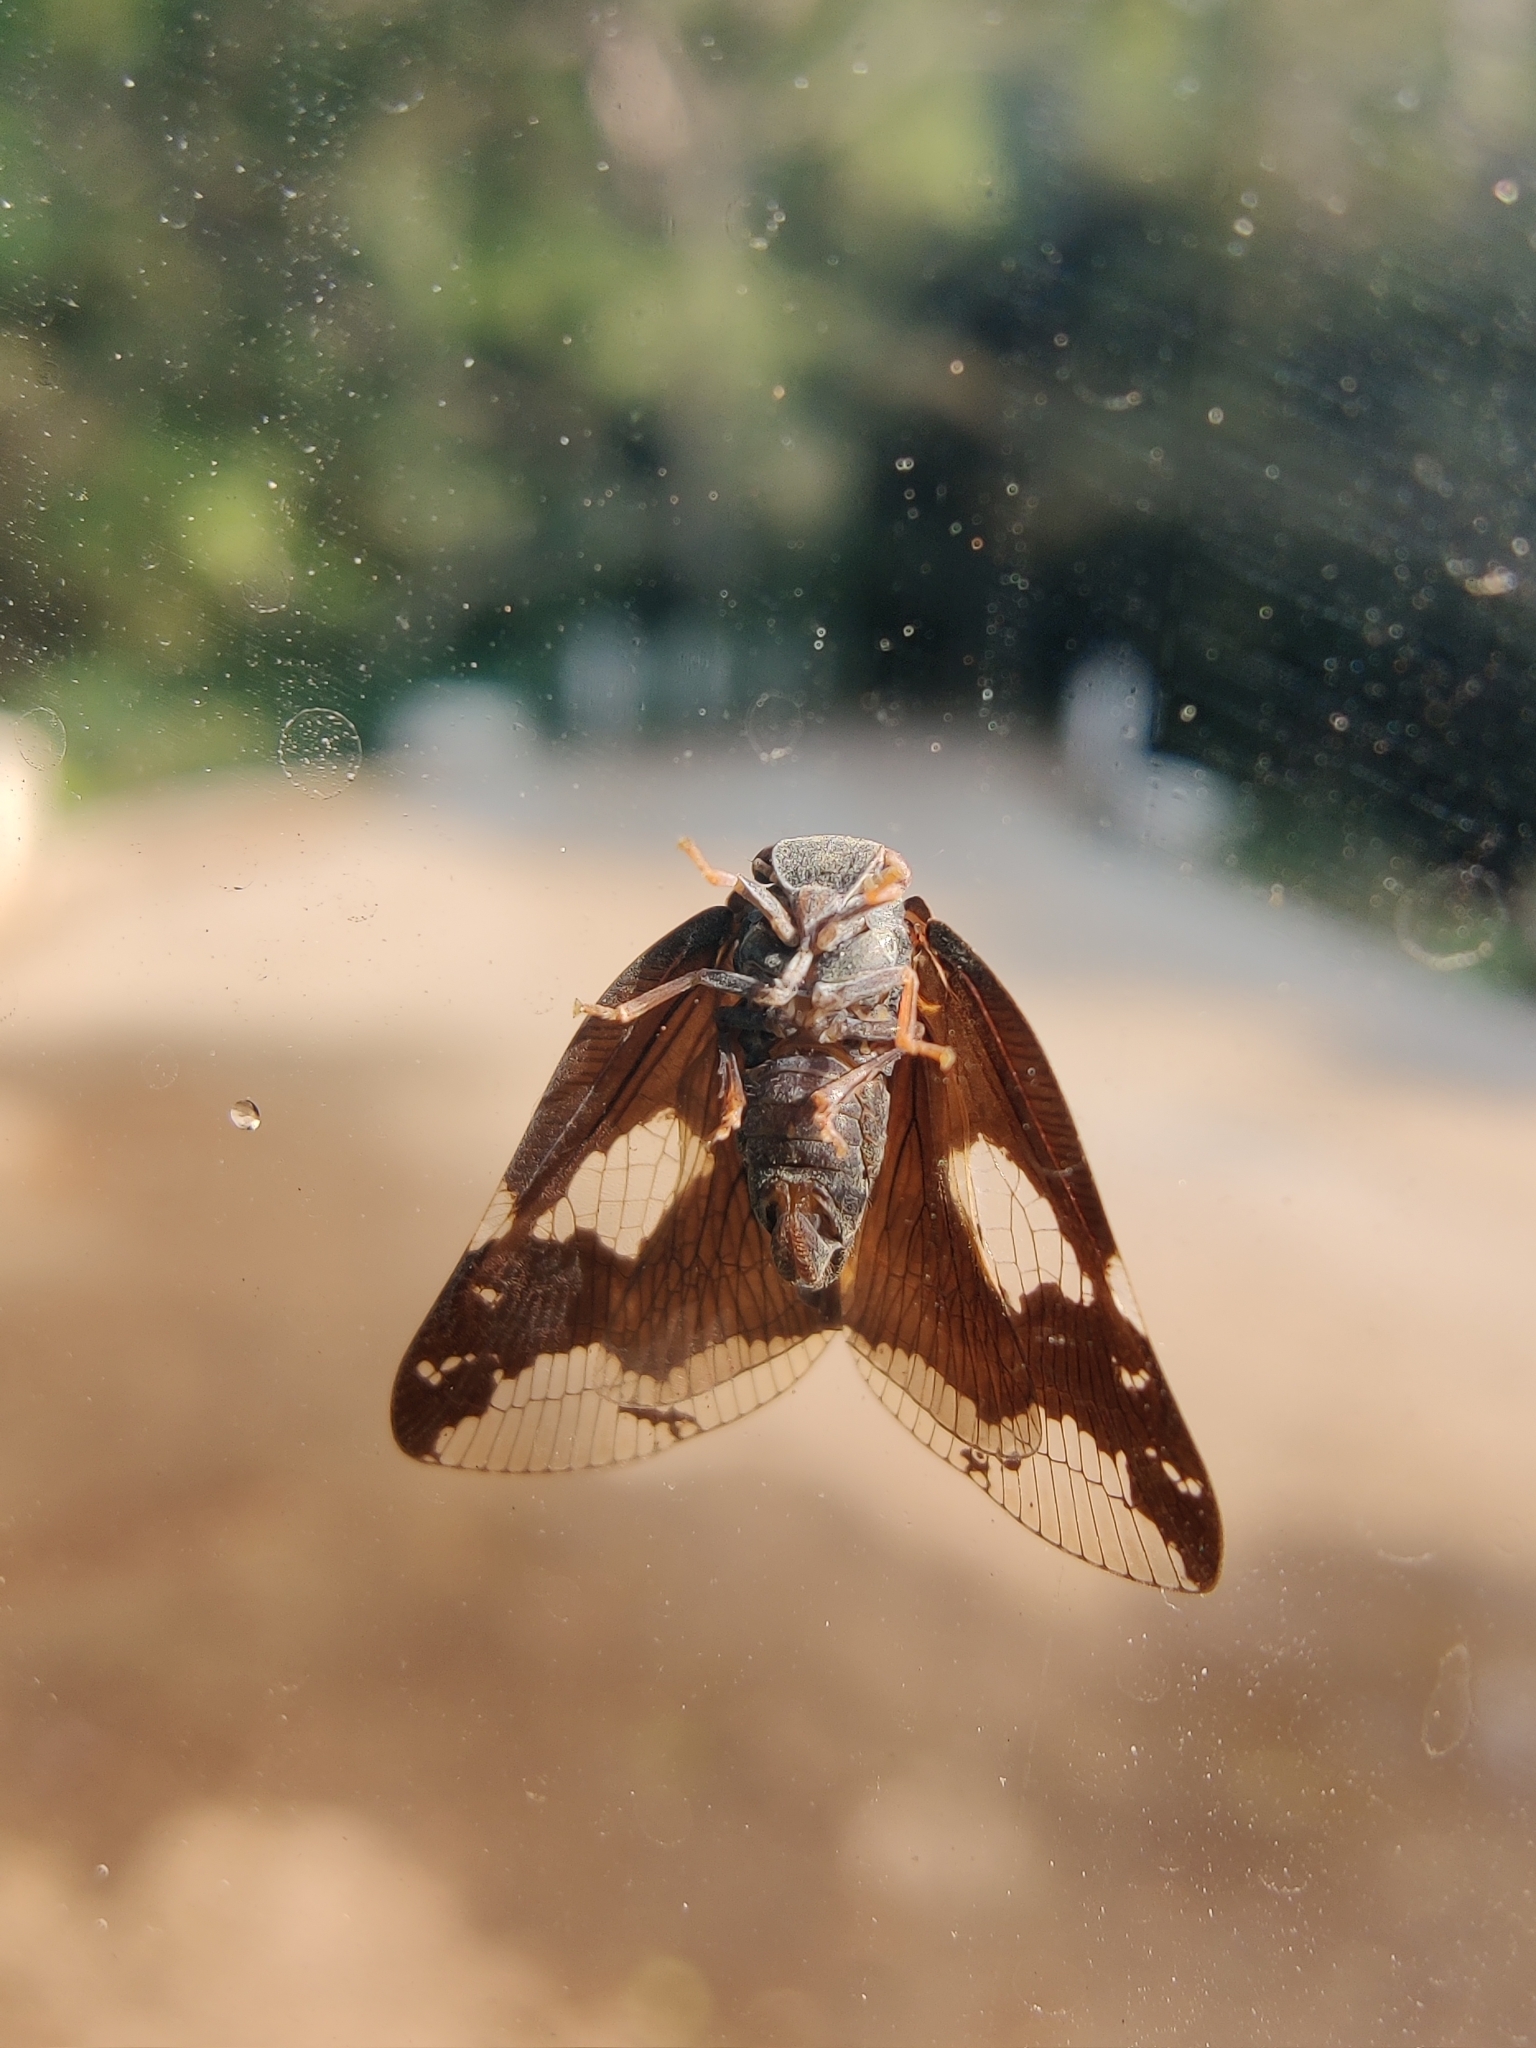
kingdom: Animalia
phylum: Arthropoda
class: Insecta
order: Hemiptera
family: Ricaniidae
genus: Ricania
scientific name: Ricania fenestrata
